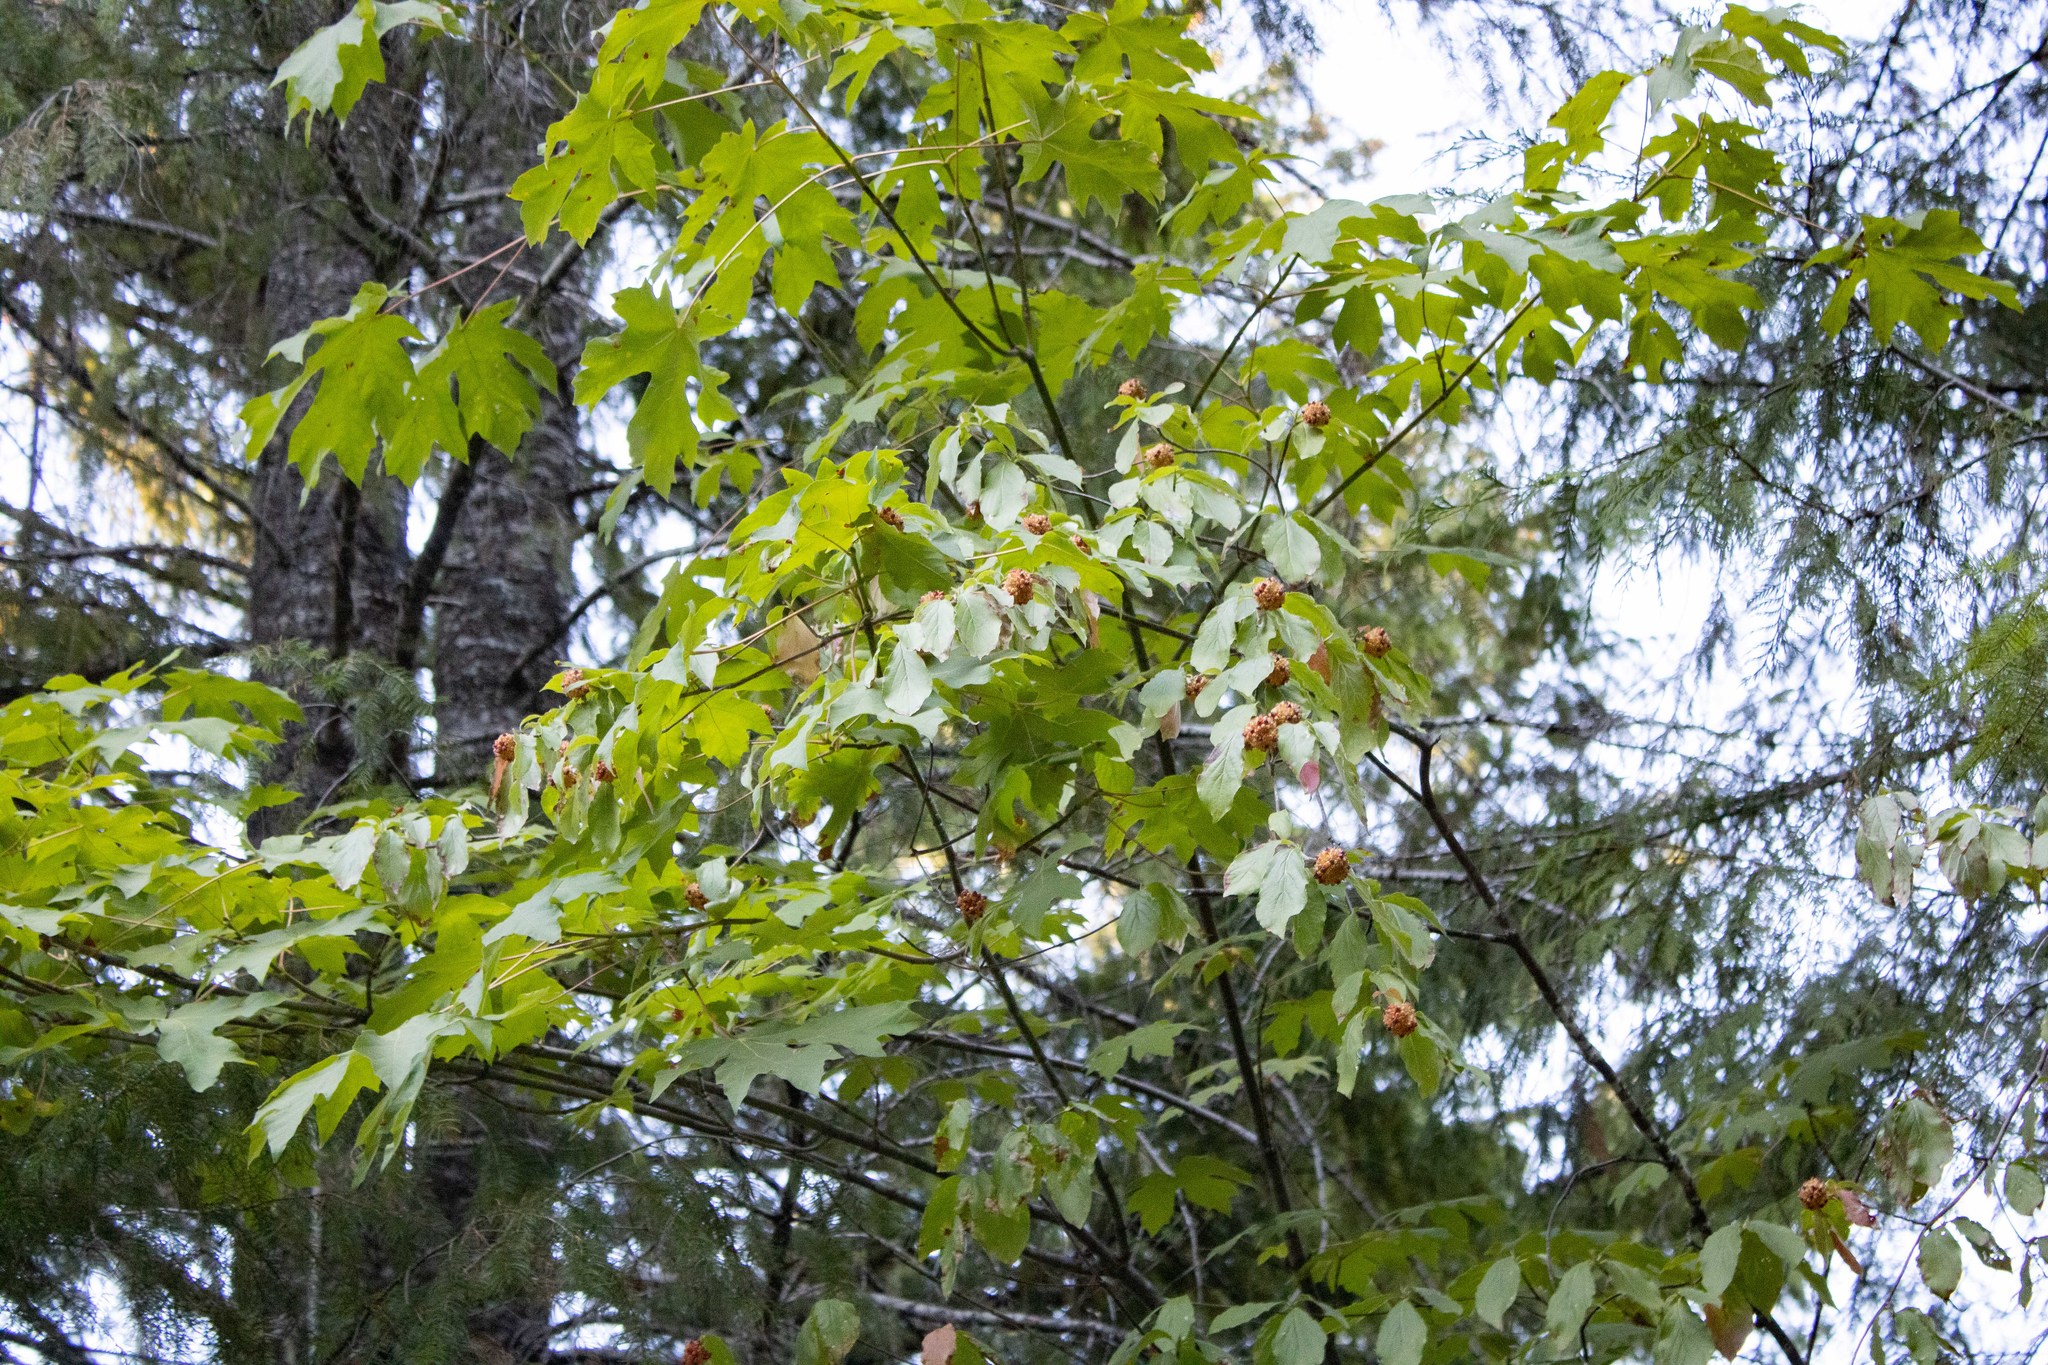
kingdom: Plantae
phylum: Tracheophyta
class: Magnoliopsida
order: Cornales
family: Cornaceae
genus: Cornus
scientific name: Cornus nuttallii
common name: Pacific dogwood
